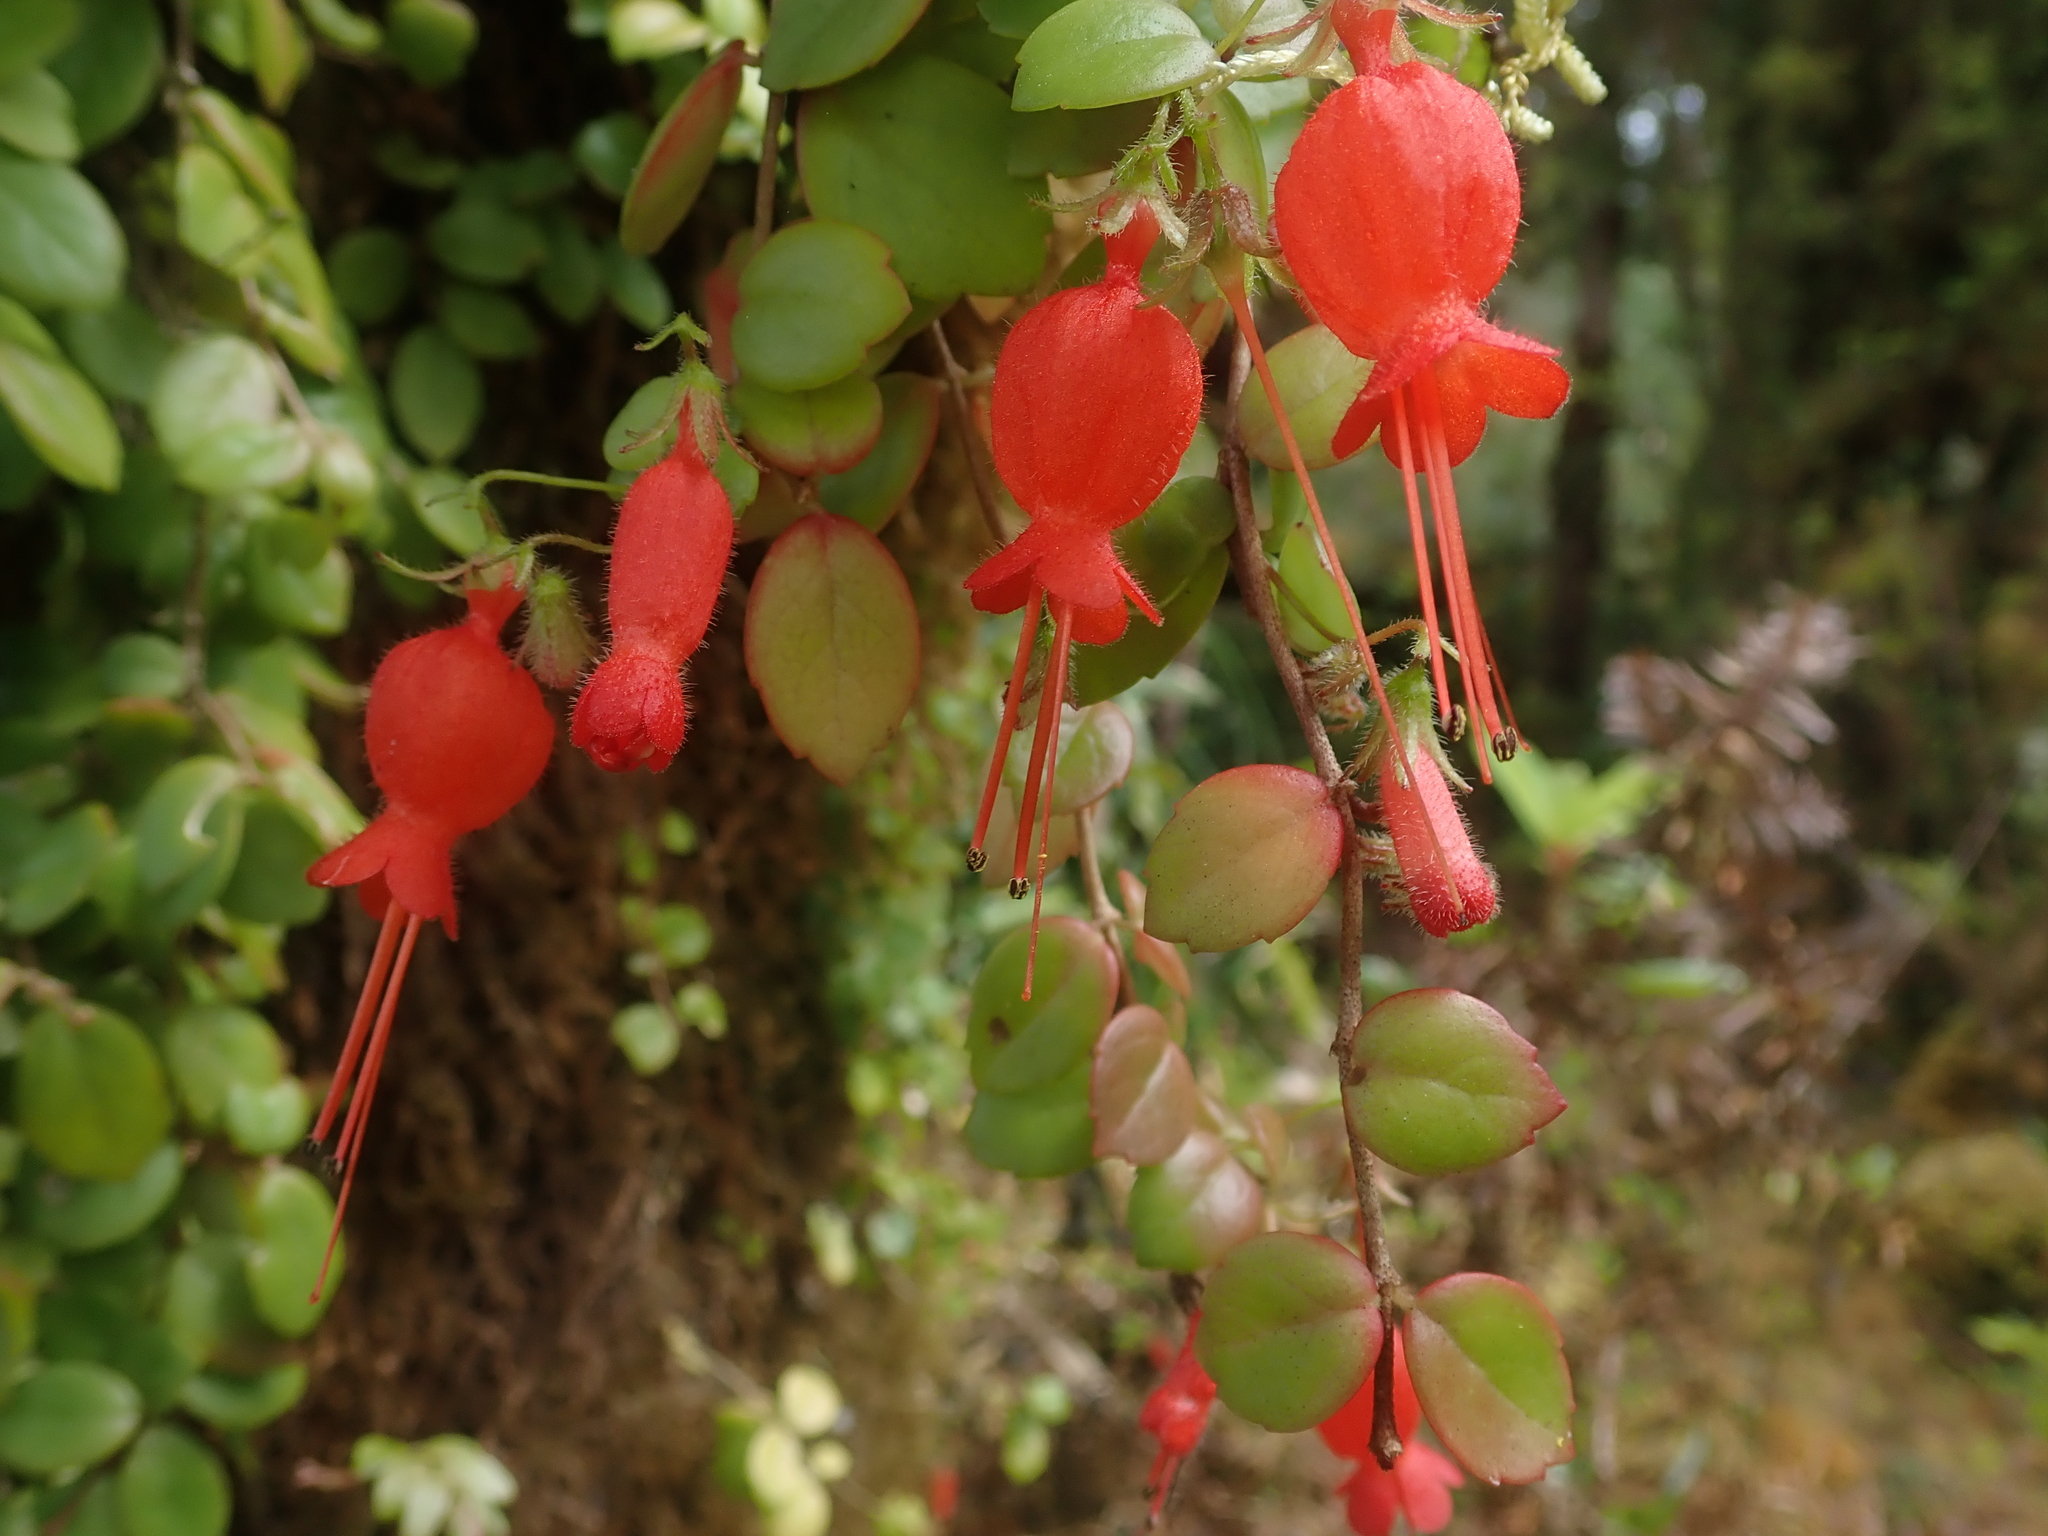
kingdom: Plantae
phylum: Tracheophyta
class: Magnoliopsida
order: Lamiales
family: Gesneriaceae
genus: Sarmienta
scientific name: Sarmienta scandens
